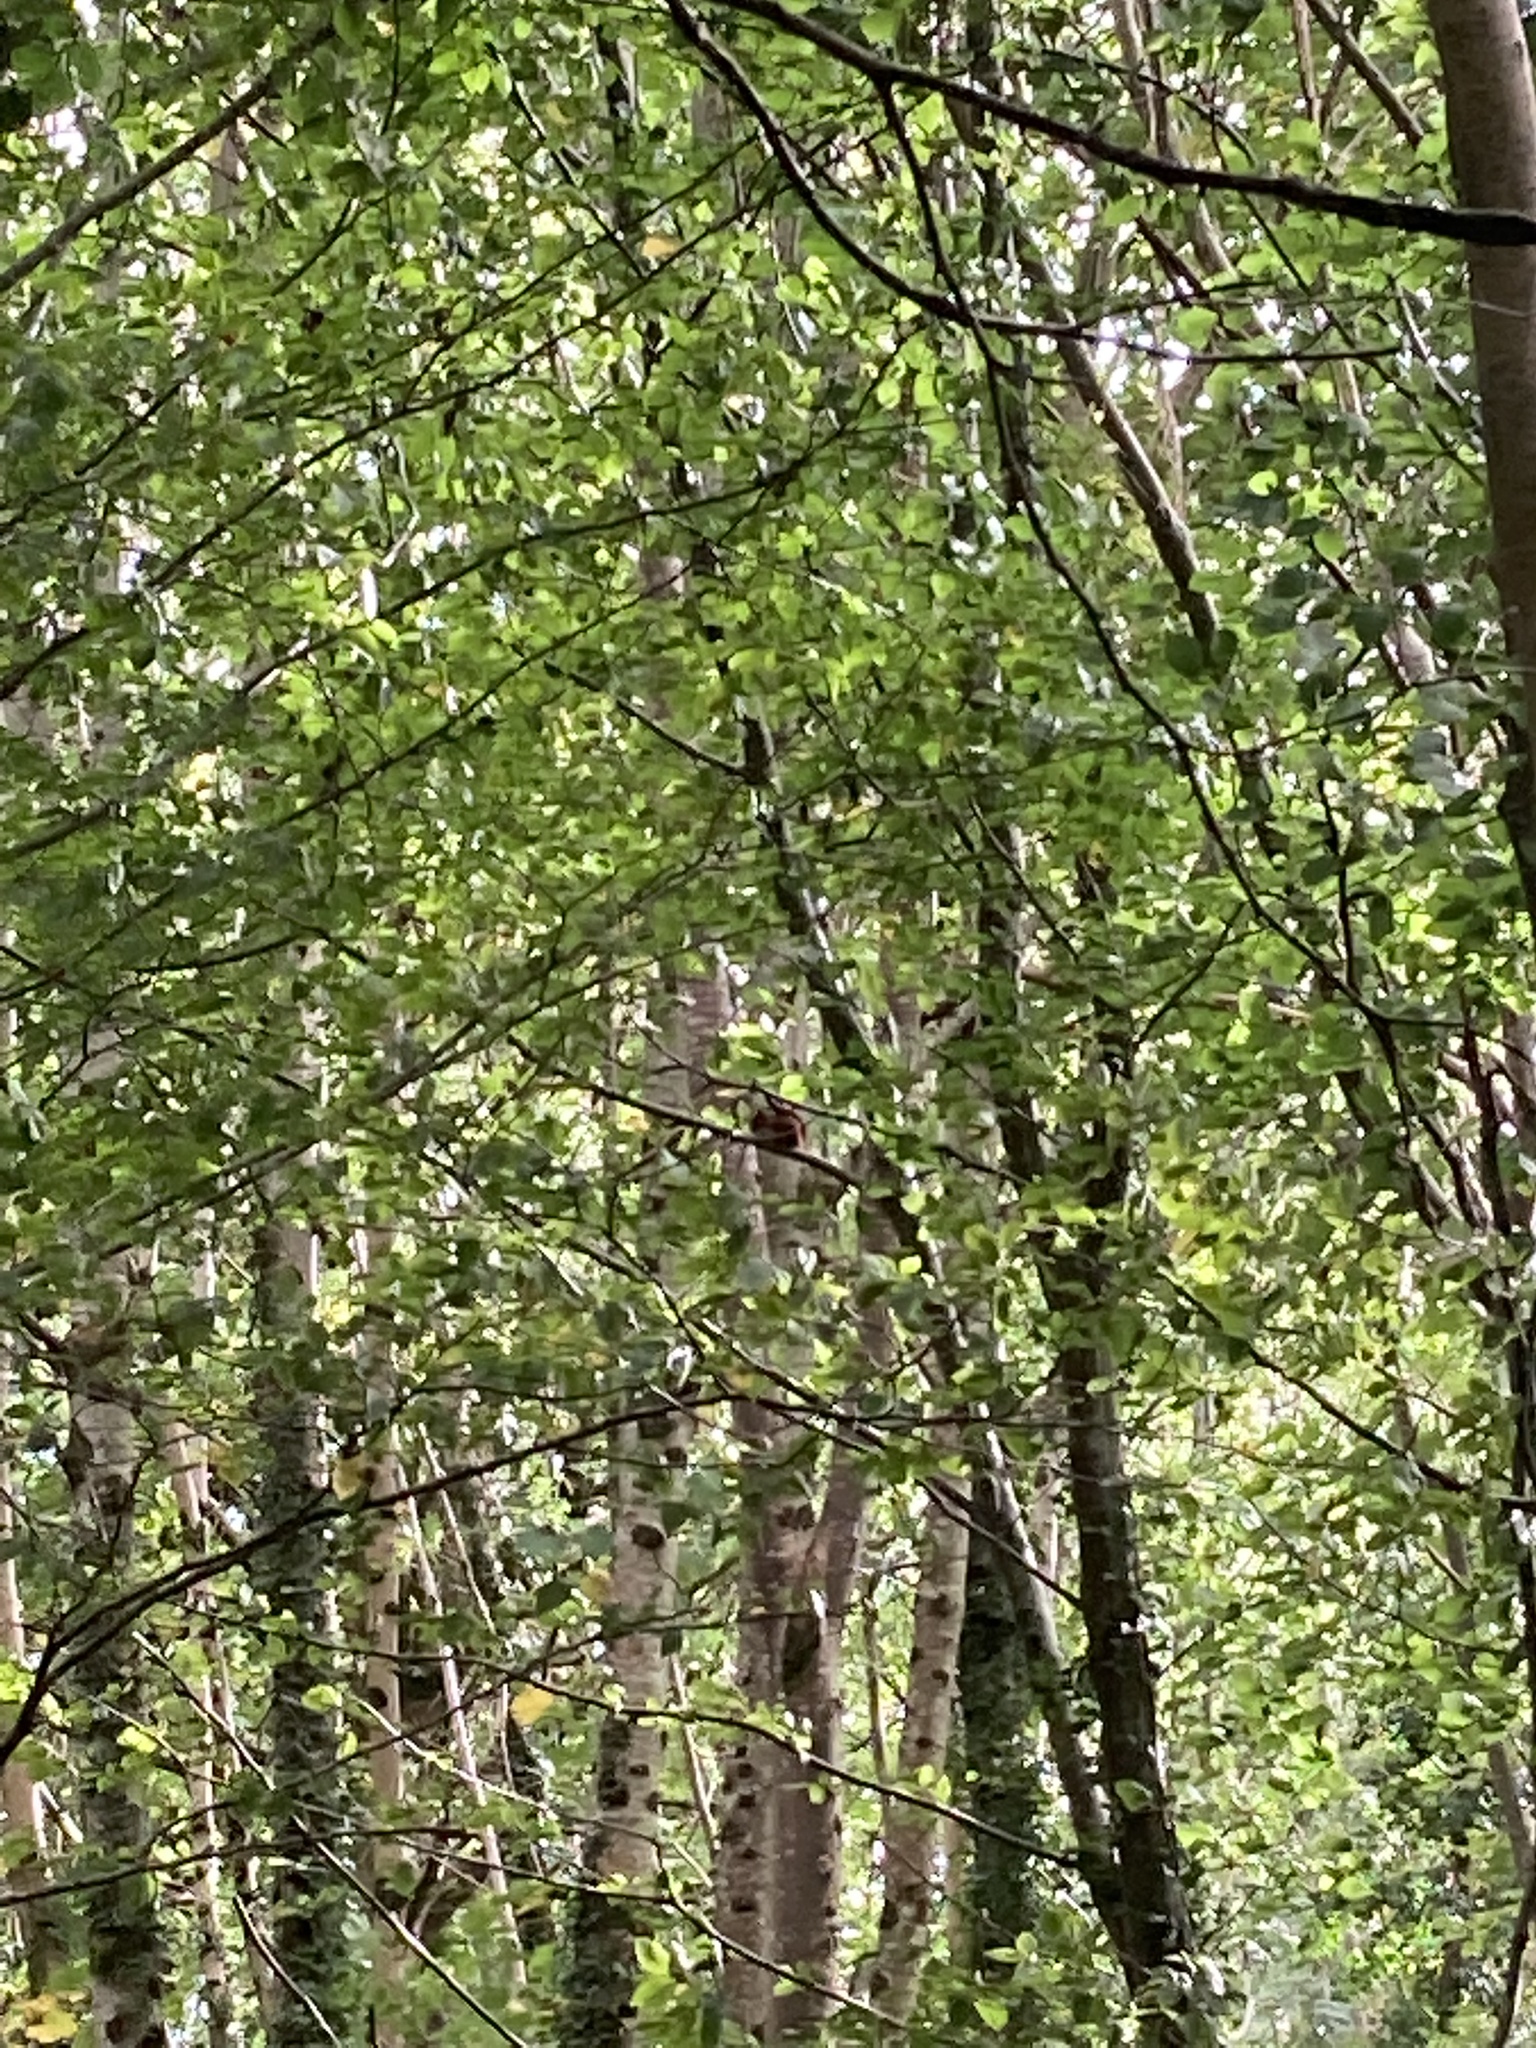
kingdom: Animalia
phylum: Chordata
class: Mammalia
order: Rodentia
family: Sciuridae
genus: Sciurus
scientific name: Sciurus vulgaris
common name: Eurasian red squirrel
